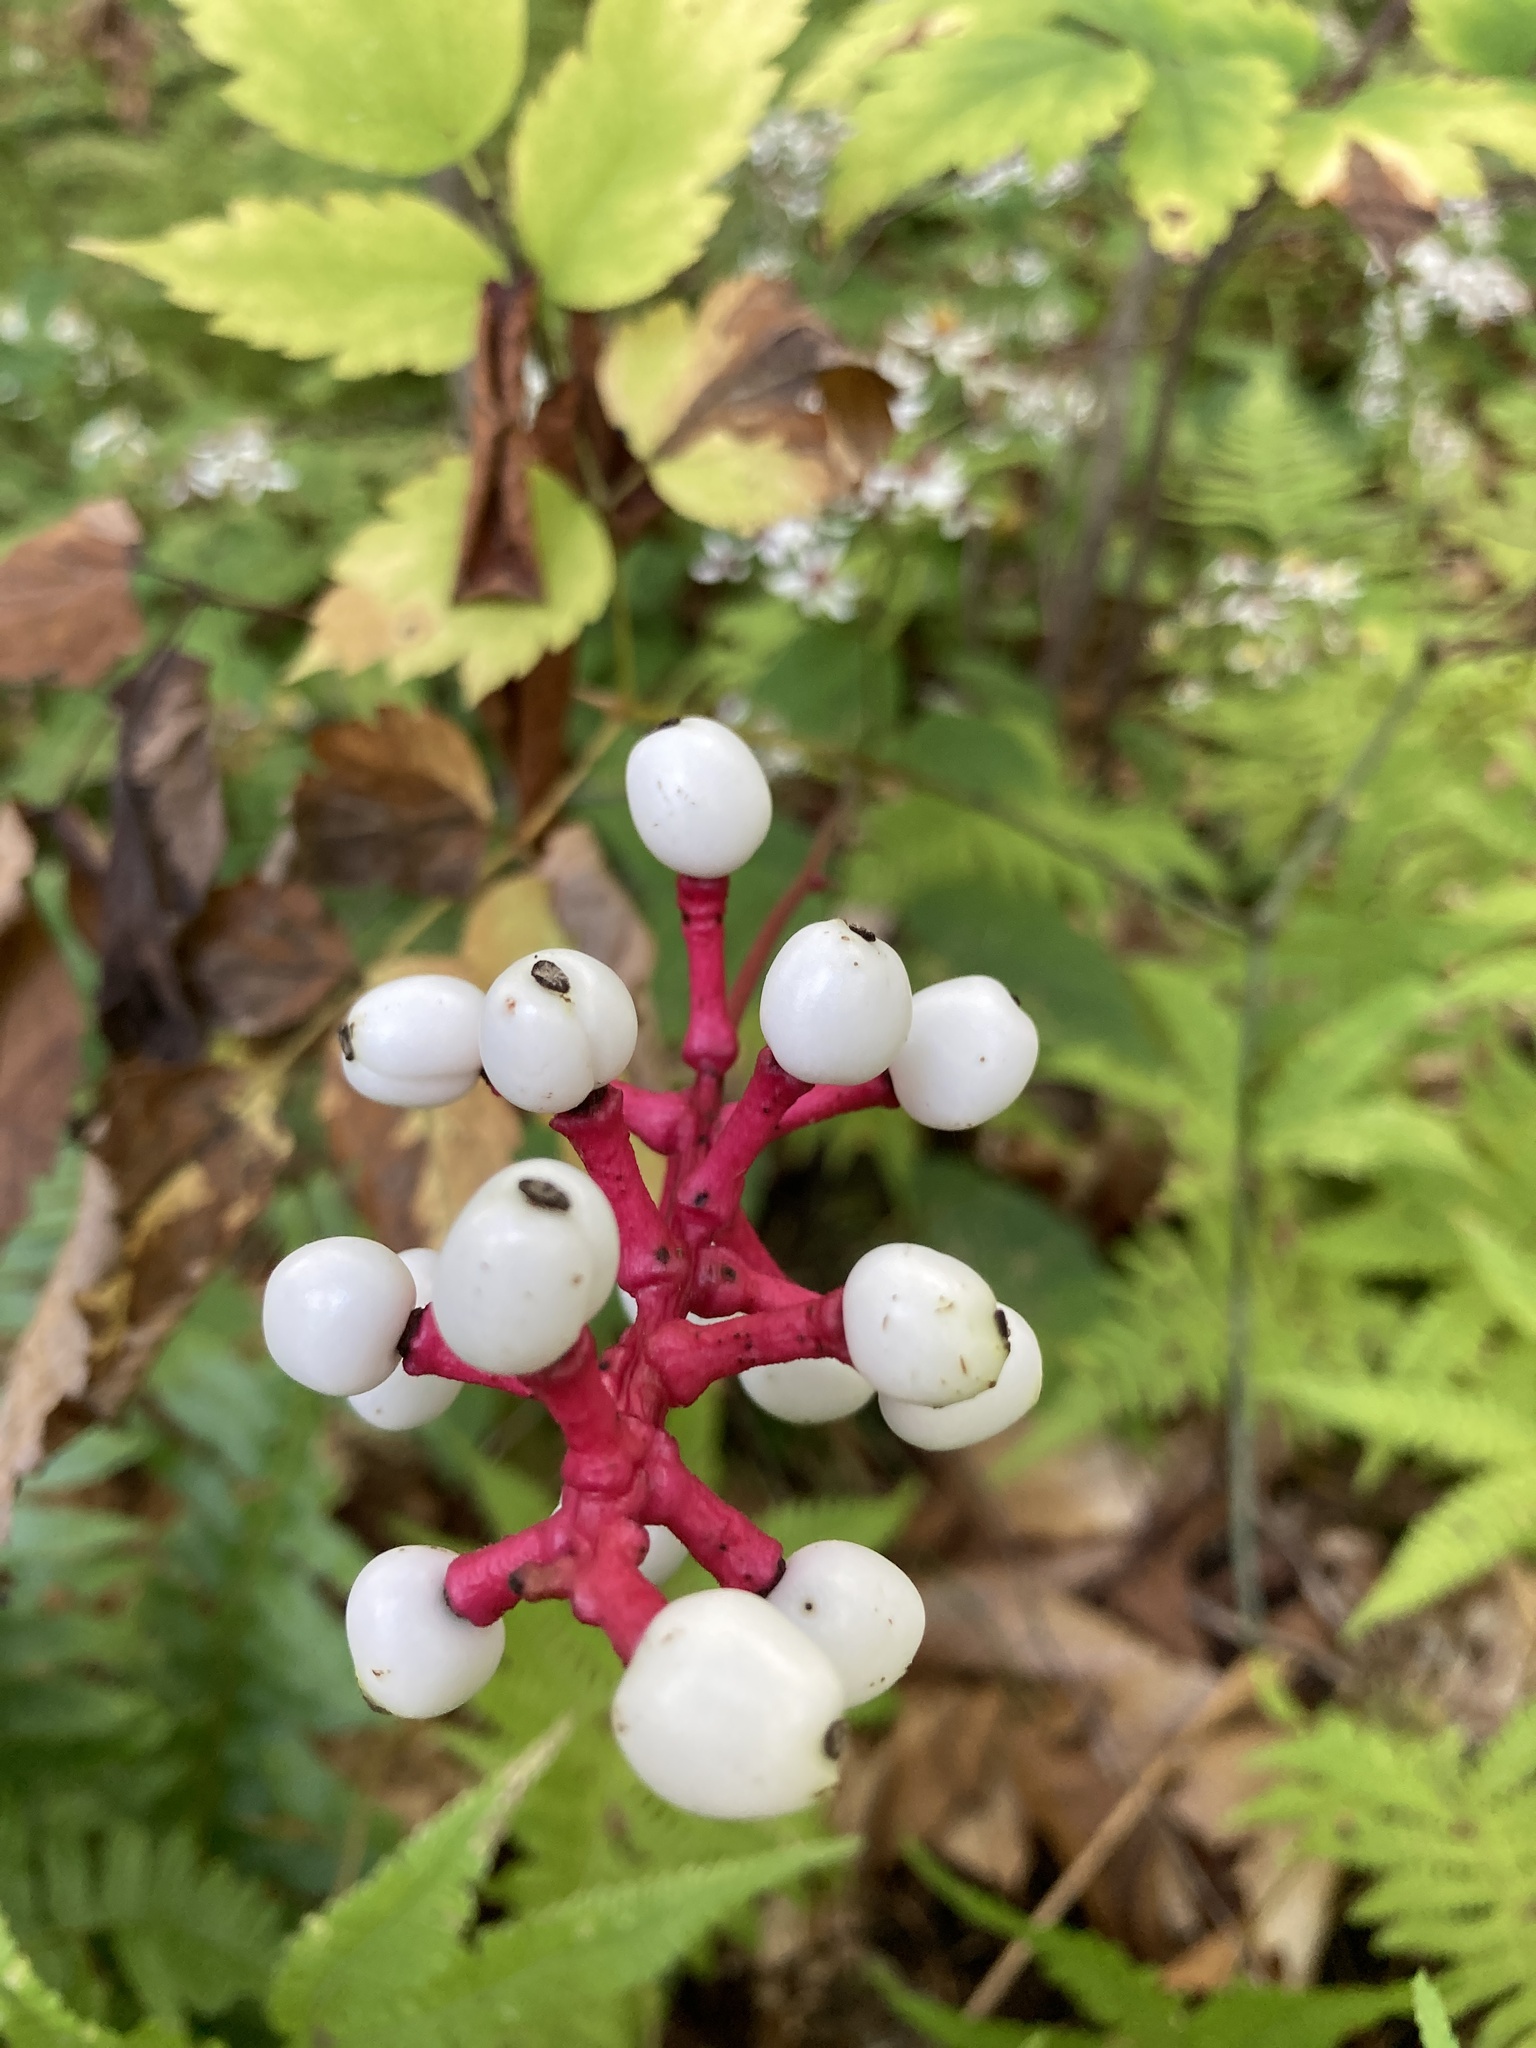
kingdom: Plantae
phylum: Tracheophyta
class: Magnoliopsida
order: Ranunculales
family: Ranunculaceae
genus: Actaea
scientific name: Actaea pachypoda
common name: Doll's-eyes
